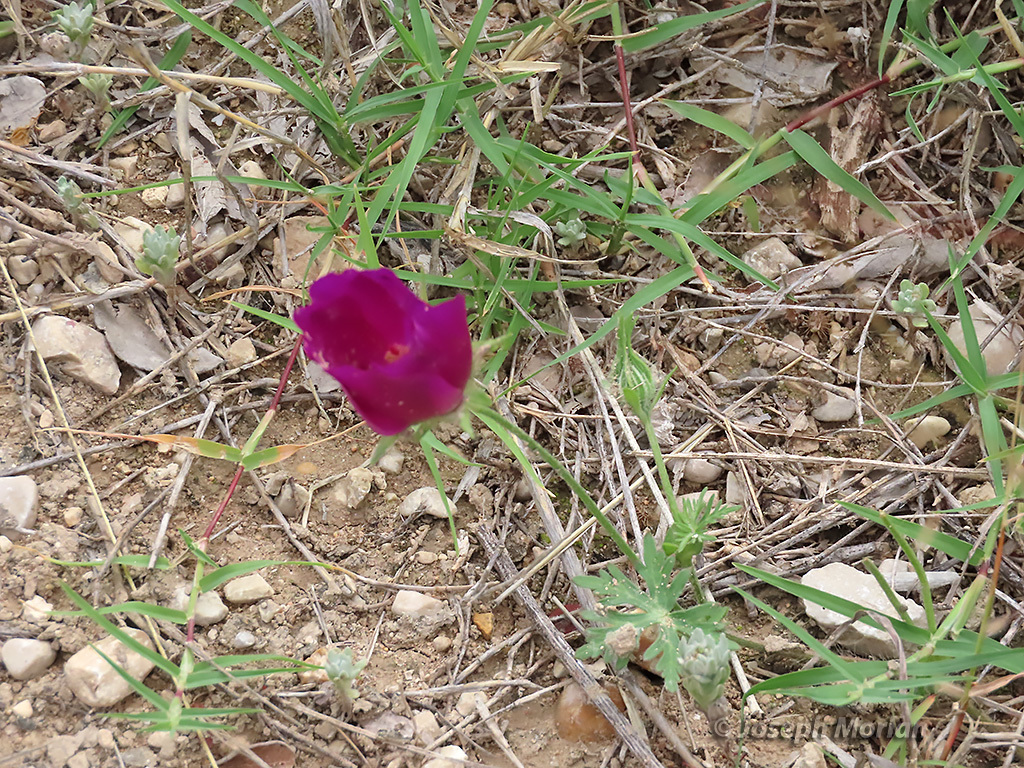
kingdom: Plantae
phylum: Tracheophyta
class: Magnoliopsida
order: Malvales
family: Malvaceae
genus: Callirhoe
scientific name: Callirhoe involucrata
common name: Purple poppy-mallow
